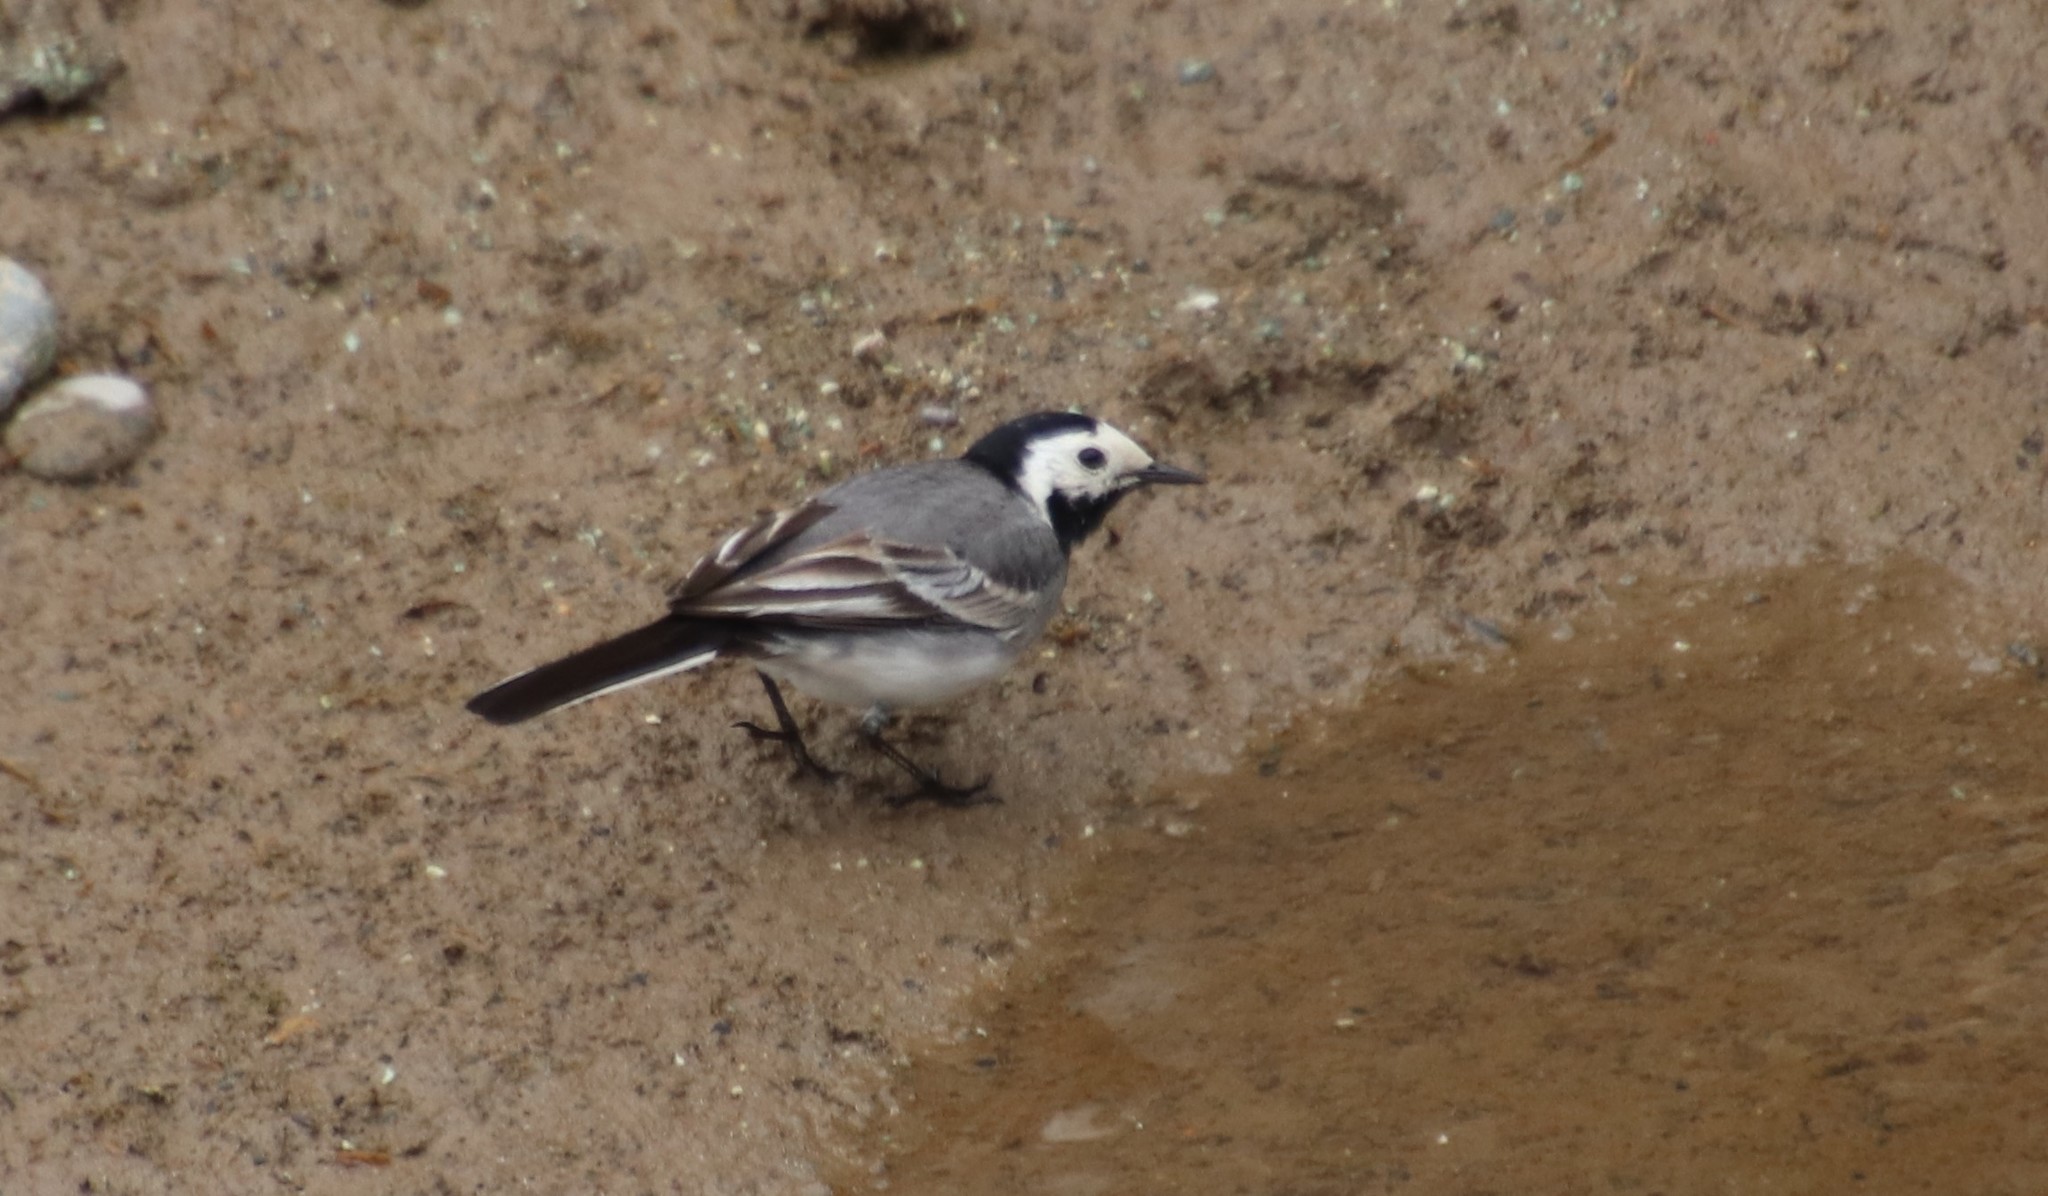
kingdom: Animalia
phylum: Chordata
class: Aves
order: Passeriformes
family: Motacillidae
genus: Motacilla
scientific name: Motacilla alba
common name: White wagtail
